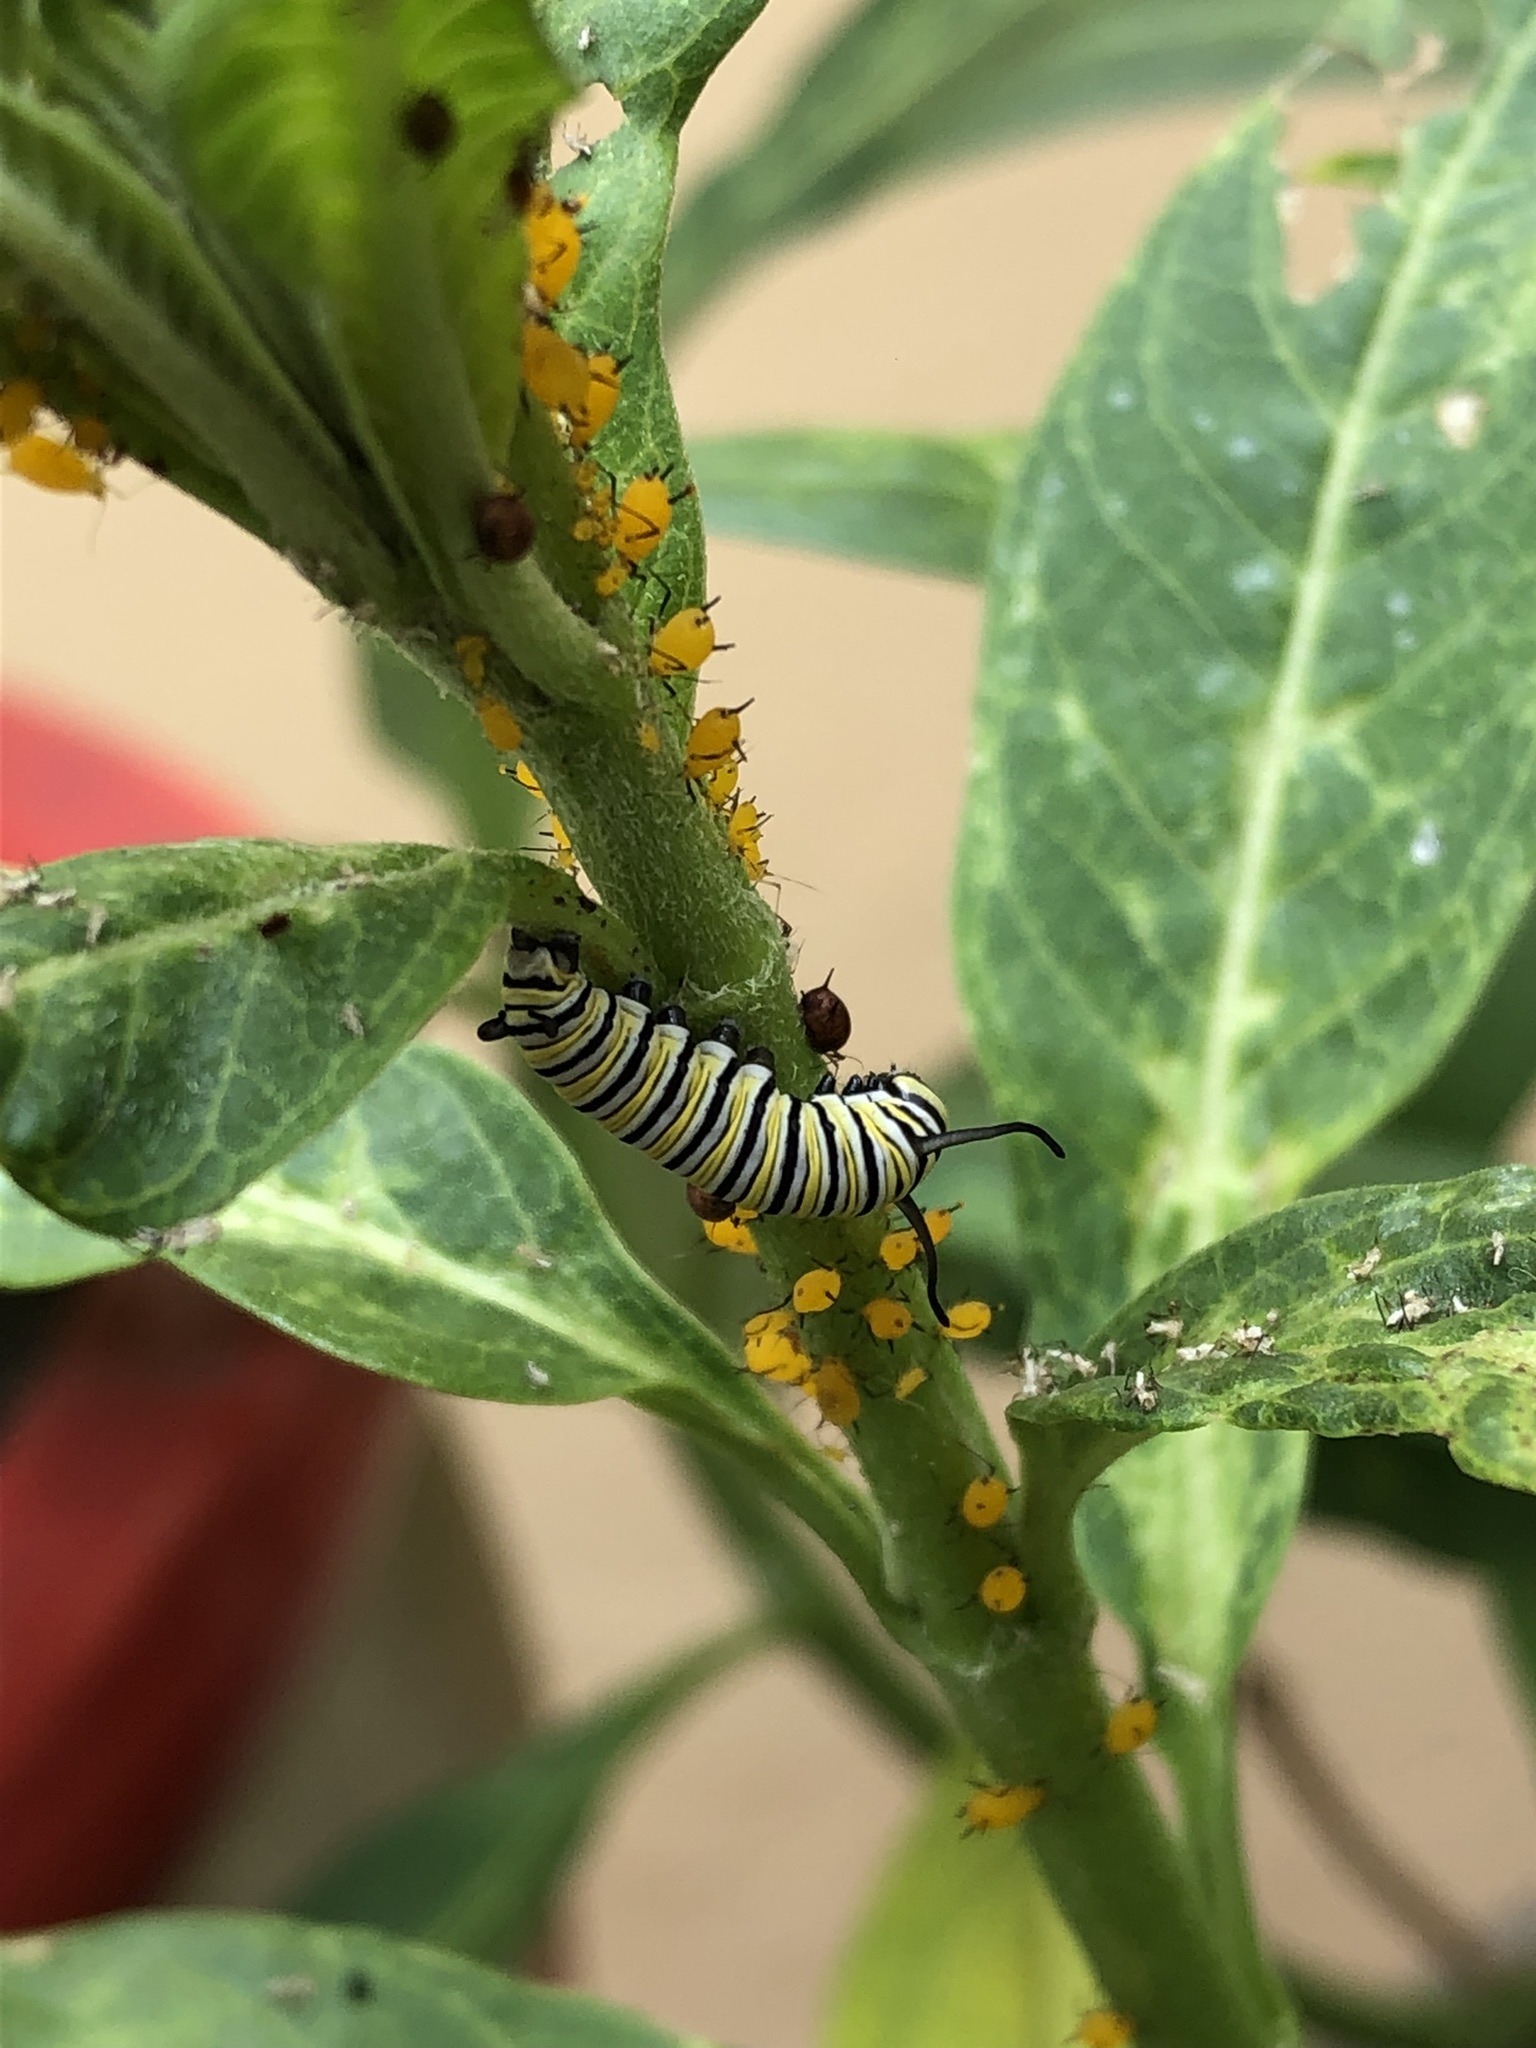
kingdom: Animalia
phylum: Arthropoda
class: Insecta
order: Lepidoptera
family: Nymphalidae
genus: Danaus
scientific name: Danaus plexippus
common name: Monarch
